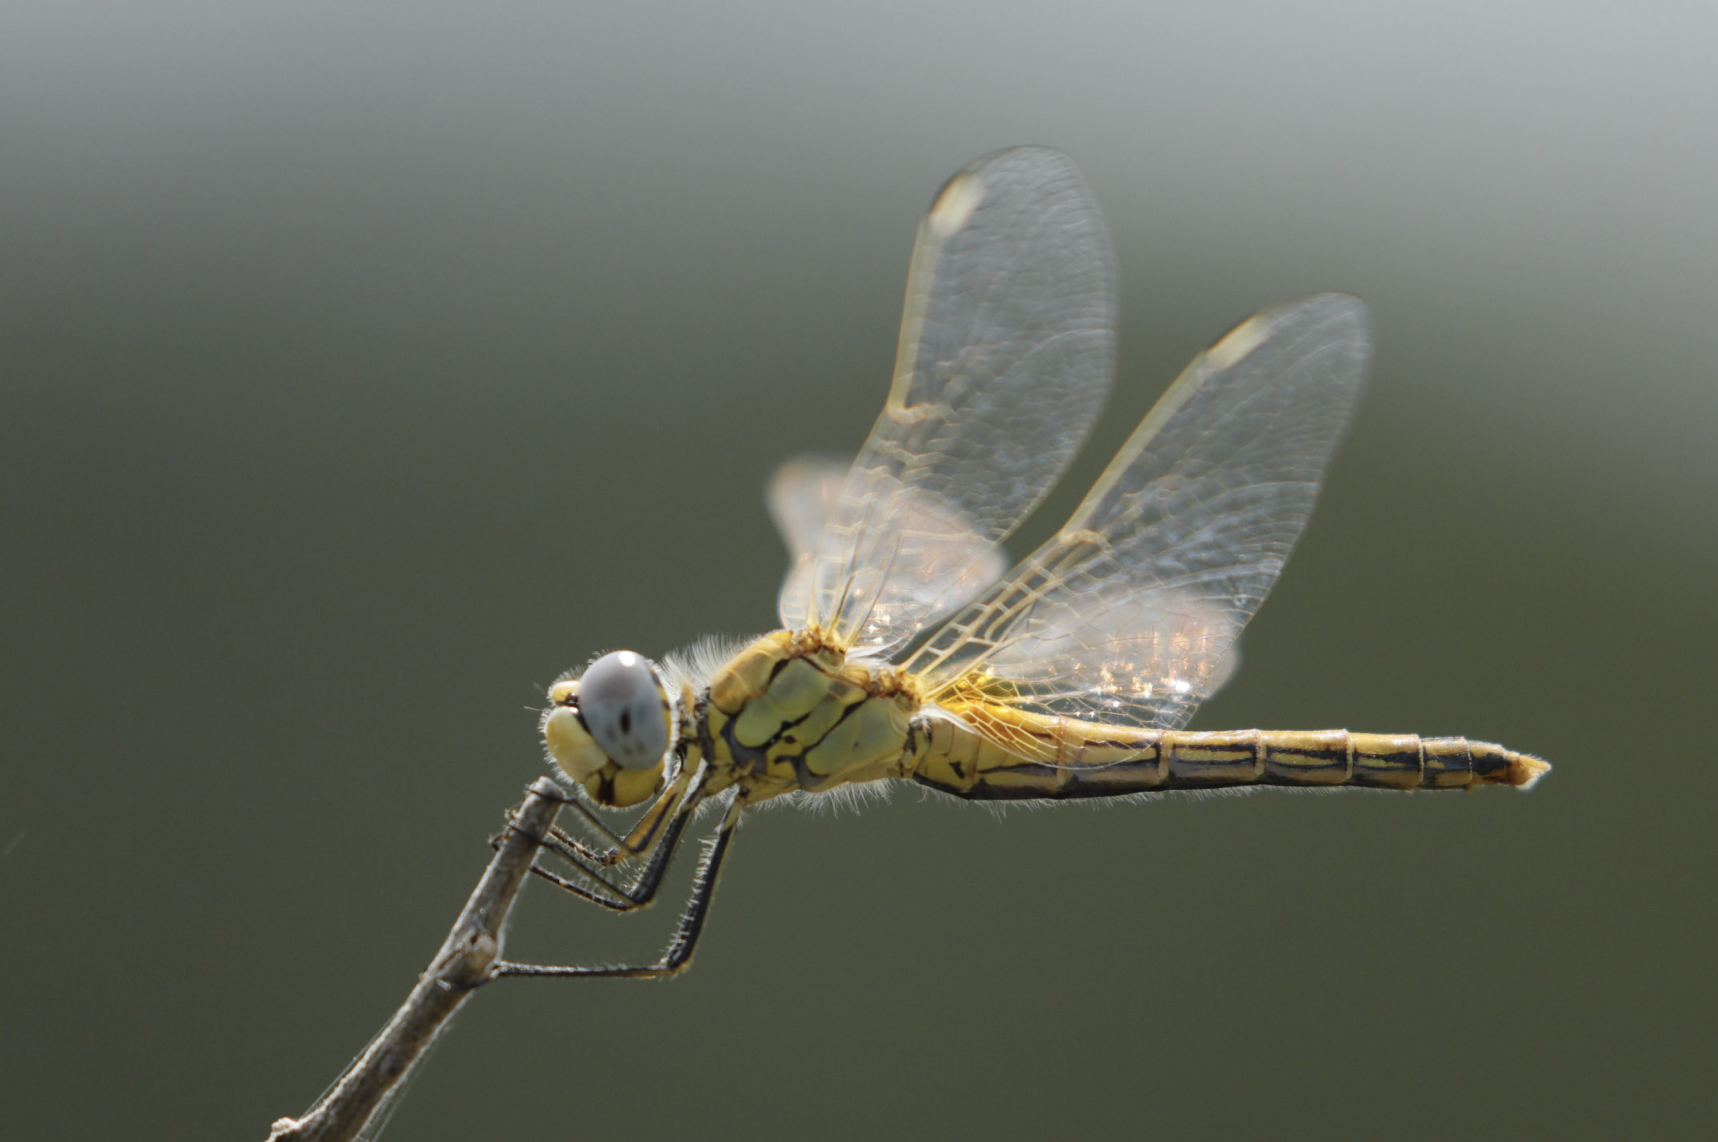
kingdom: Animalia
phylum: Arthropoda
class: Insecta
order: Odonata
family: Libellulidae
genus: Sympetrum
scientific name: Sympetrum fonscolombii
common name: Red-veined darter
